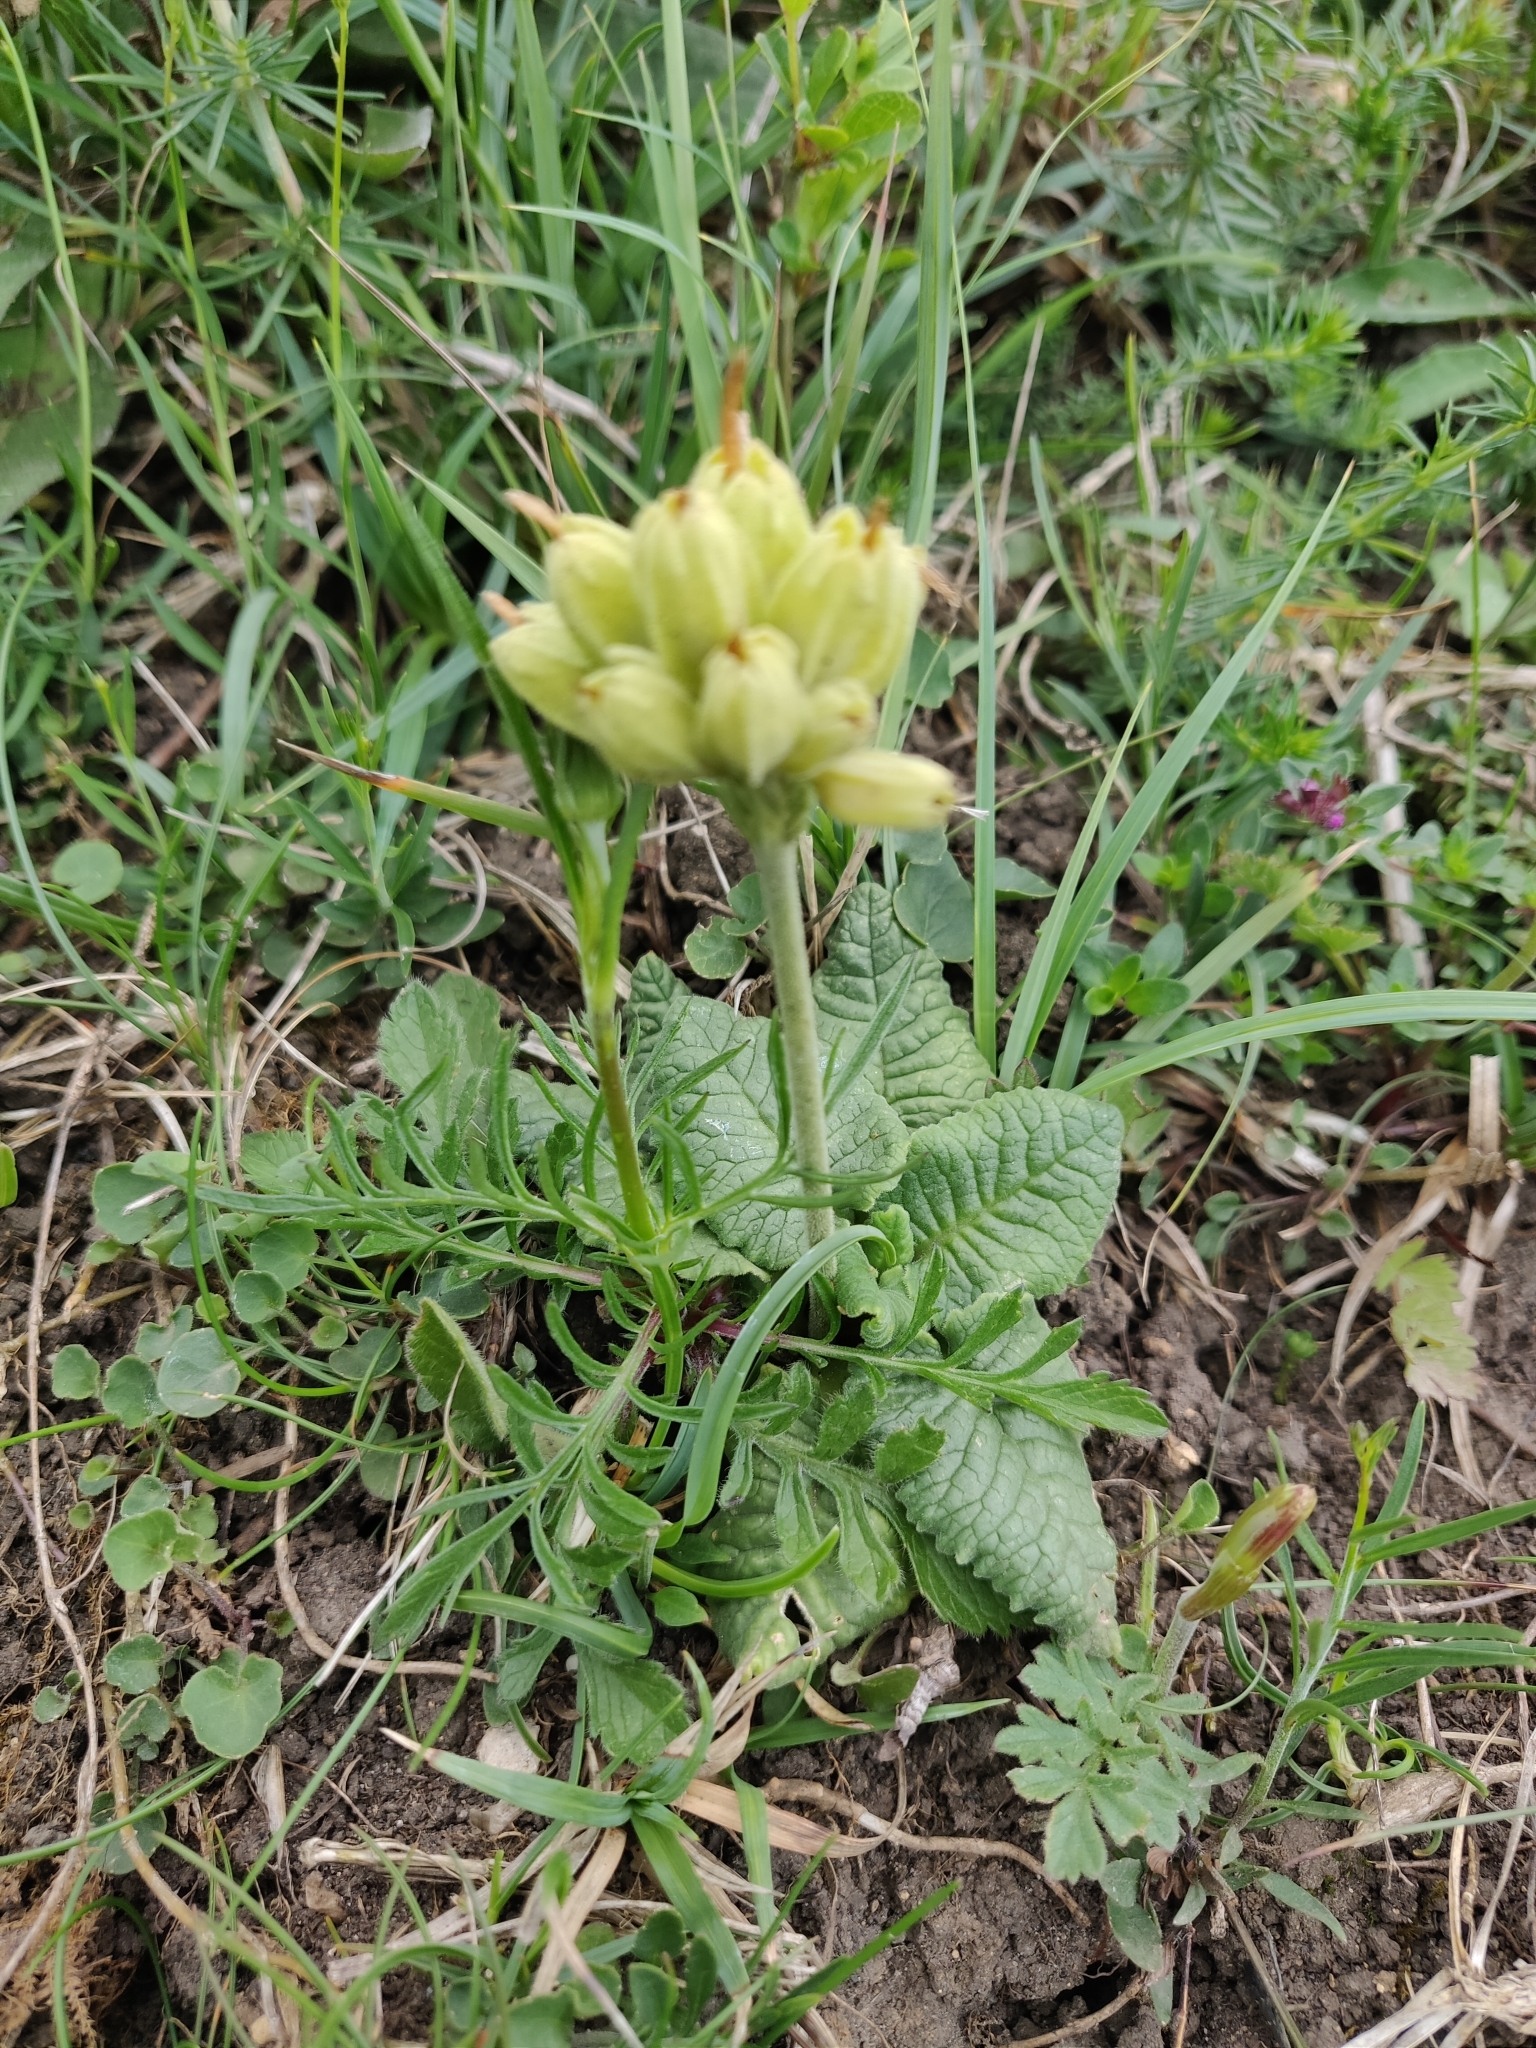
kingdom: Plantae
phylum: Tracheophyta
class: Magnoliopsida
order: Ericales
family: Primulaceae
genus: Primula
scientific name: Primula veris
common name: Cowslip
